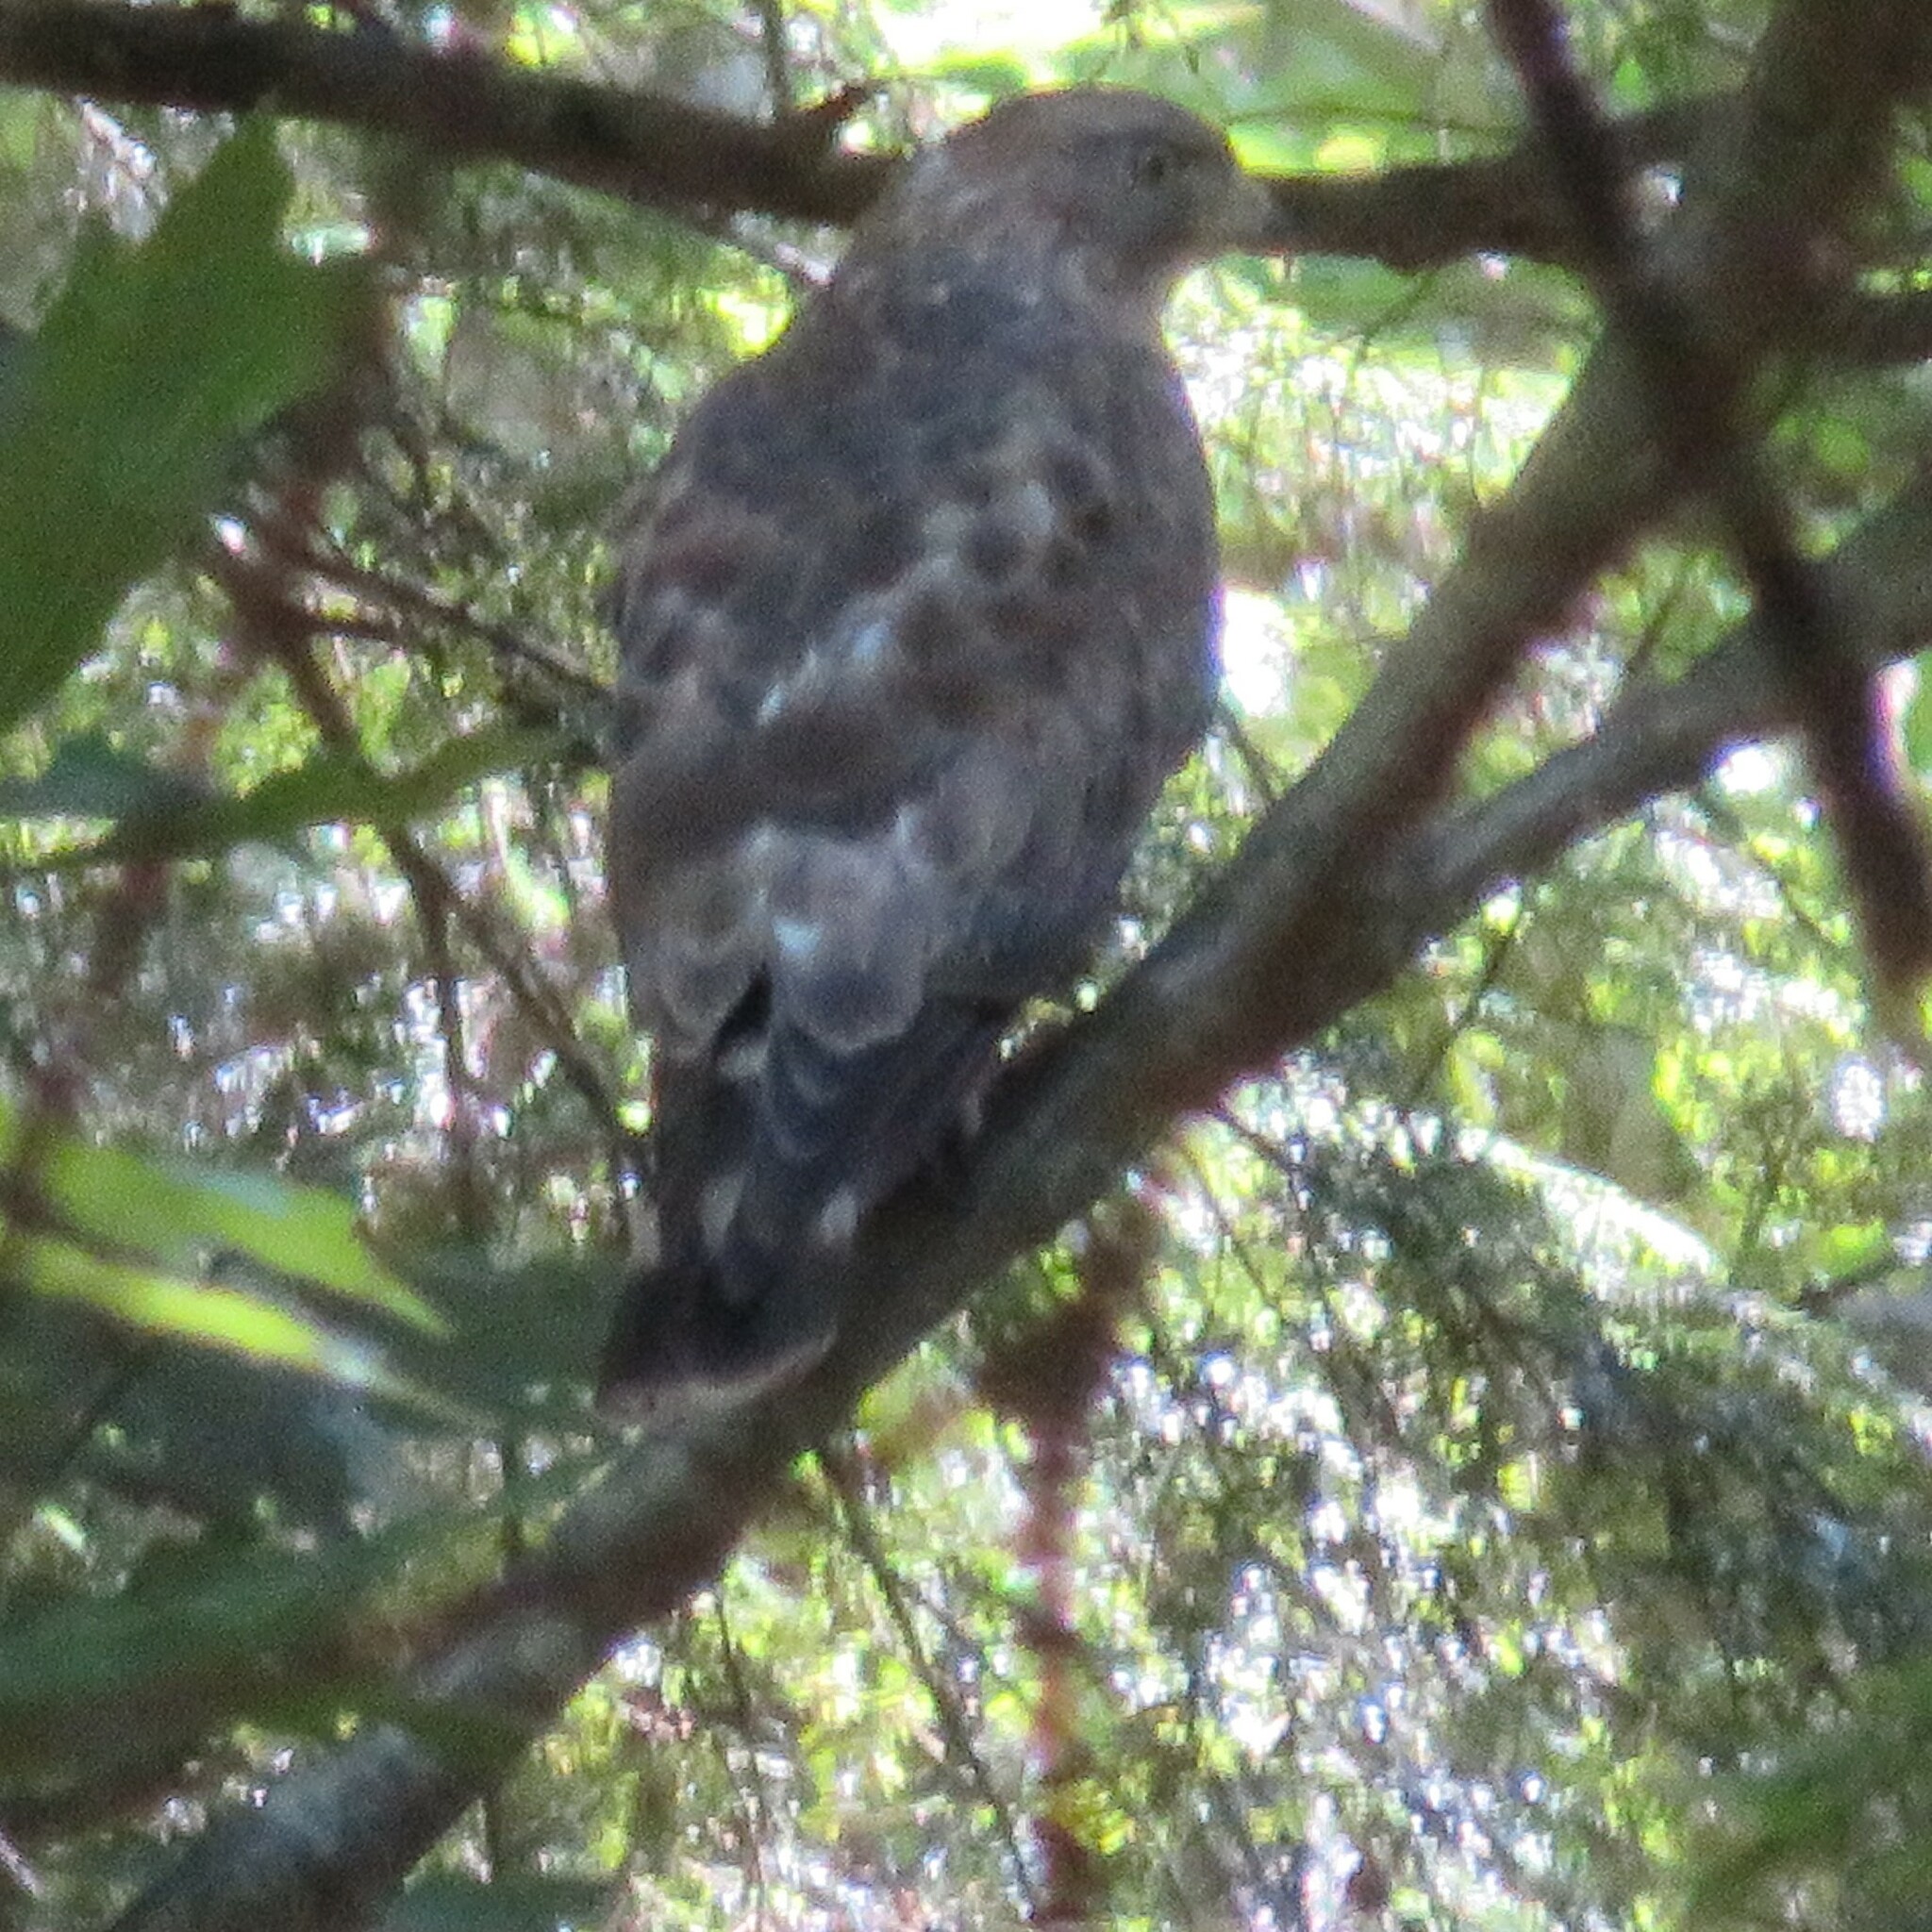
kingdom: Animalia
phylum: Chordata
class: Aves
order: Accipitriformes
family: Accipitridae
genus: Buteo
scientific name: Buteo platypterus
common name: Broad-winged hawk
